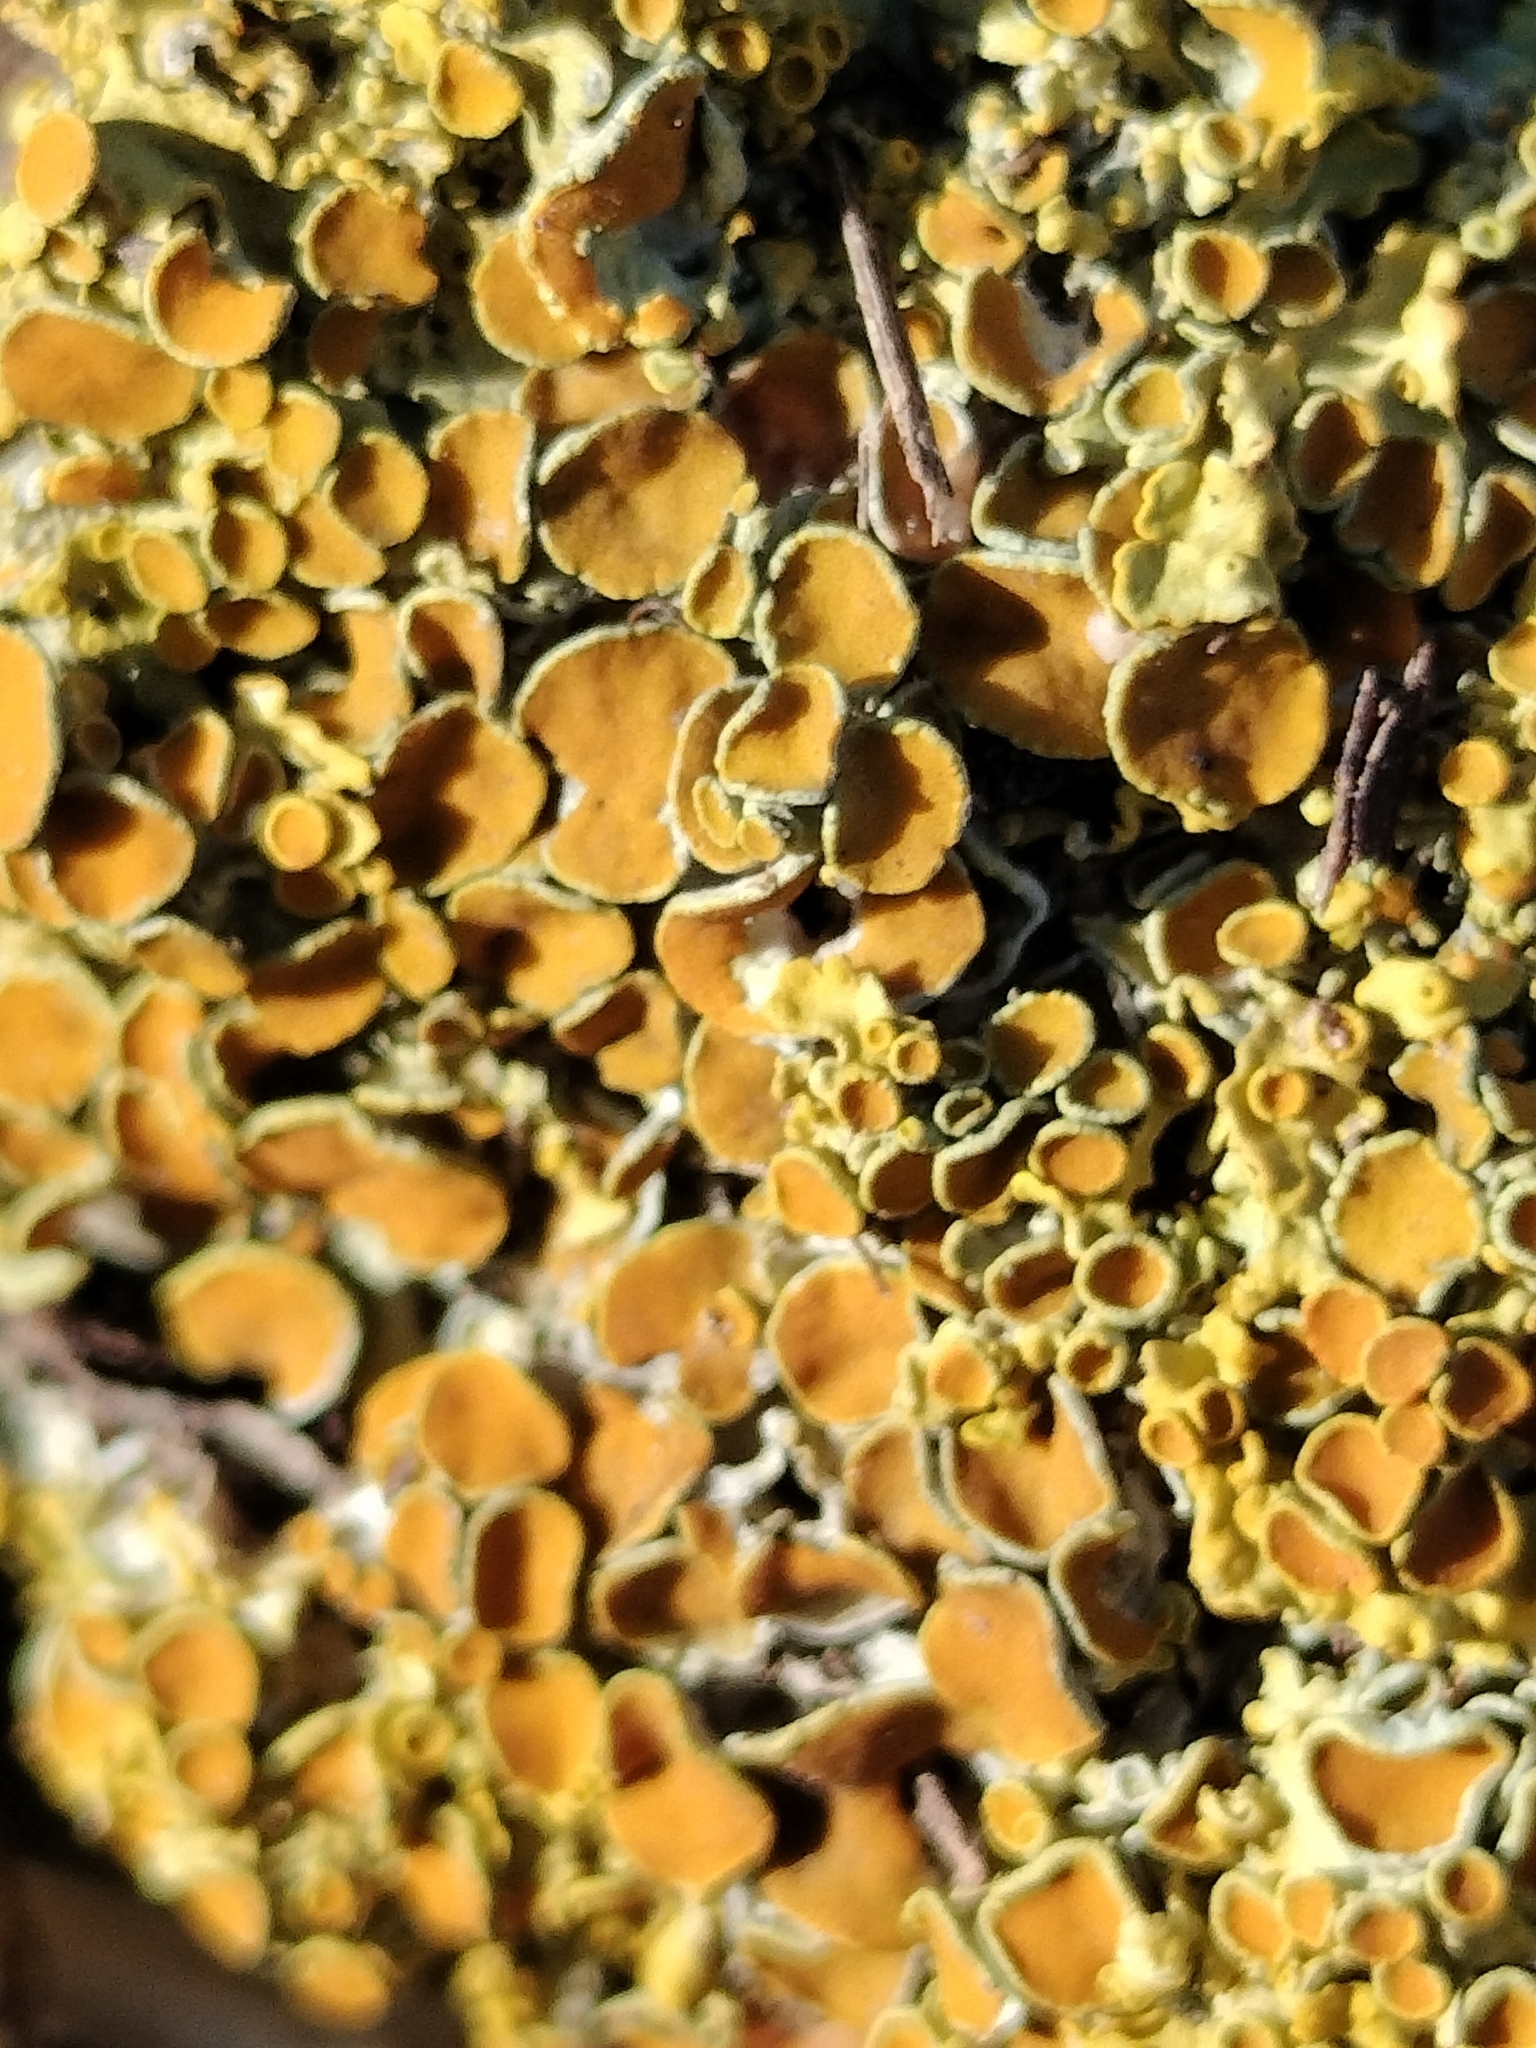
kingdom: Fungi
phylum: Ascomycota
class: Lecanoromycetes
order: Teloschistales
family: Teloschistaceae
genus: Xanthoria
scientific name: Xanthoria parietina
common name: Common orange lichen
